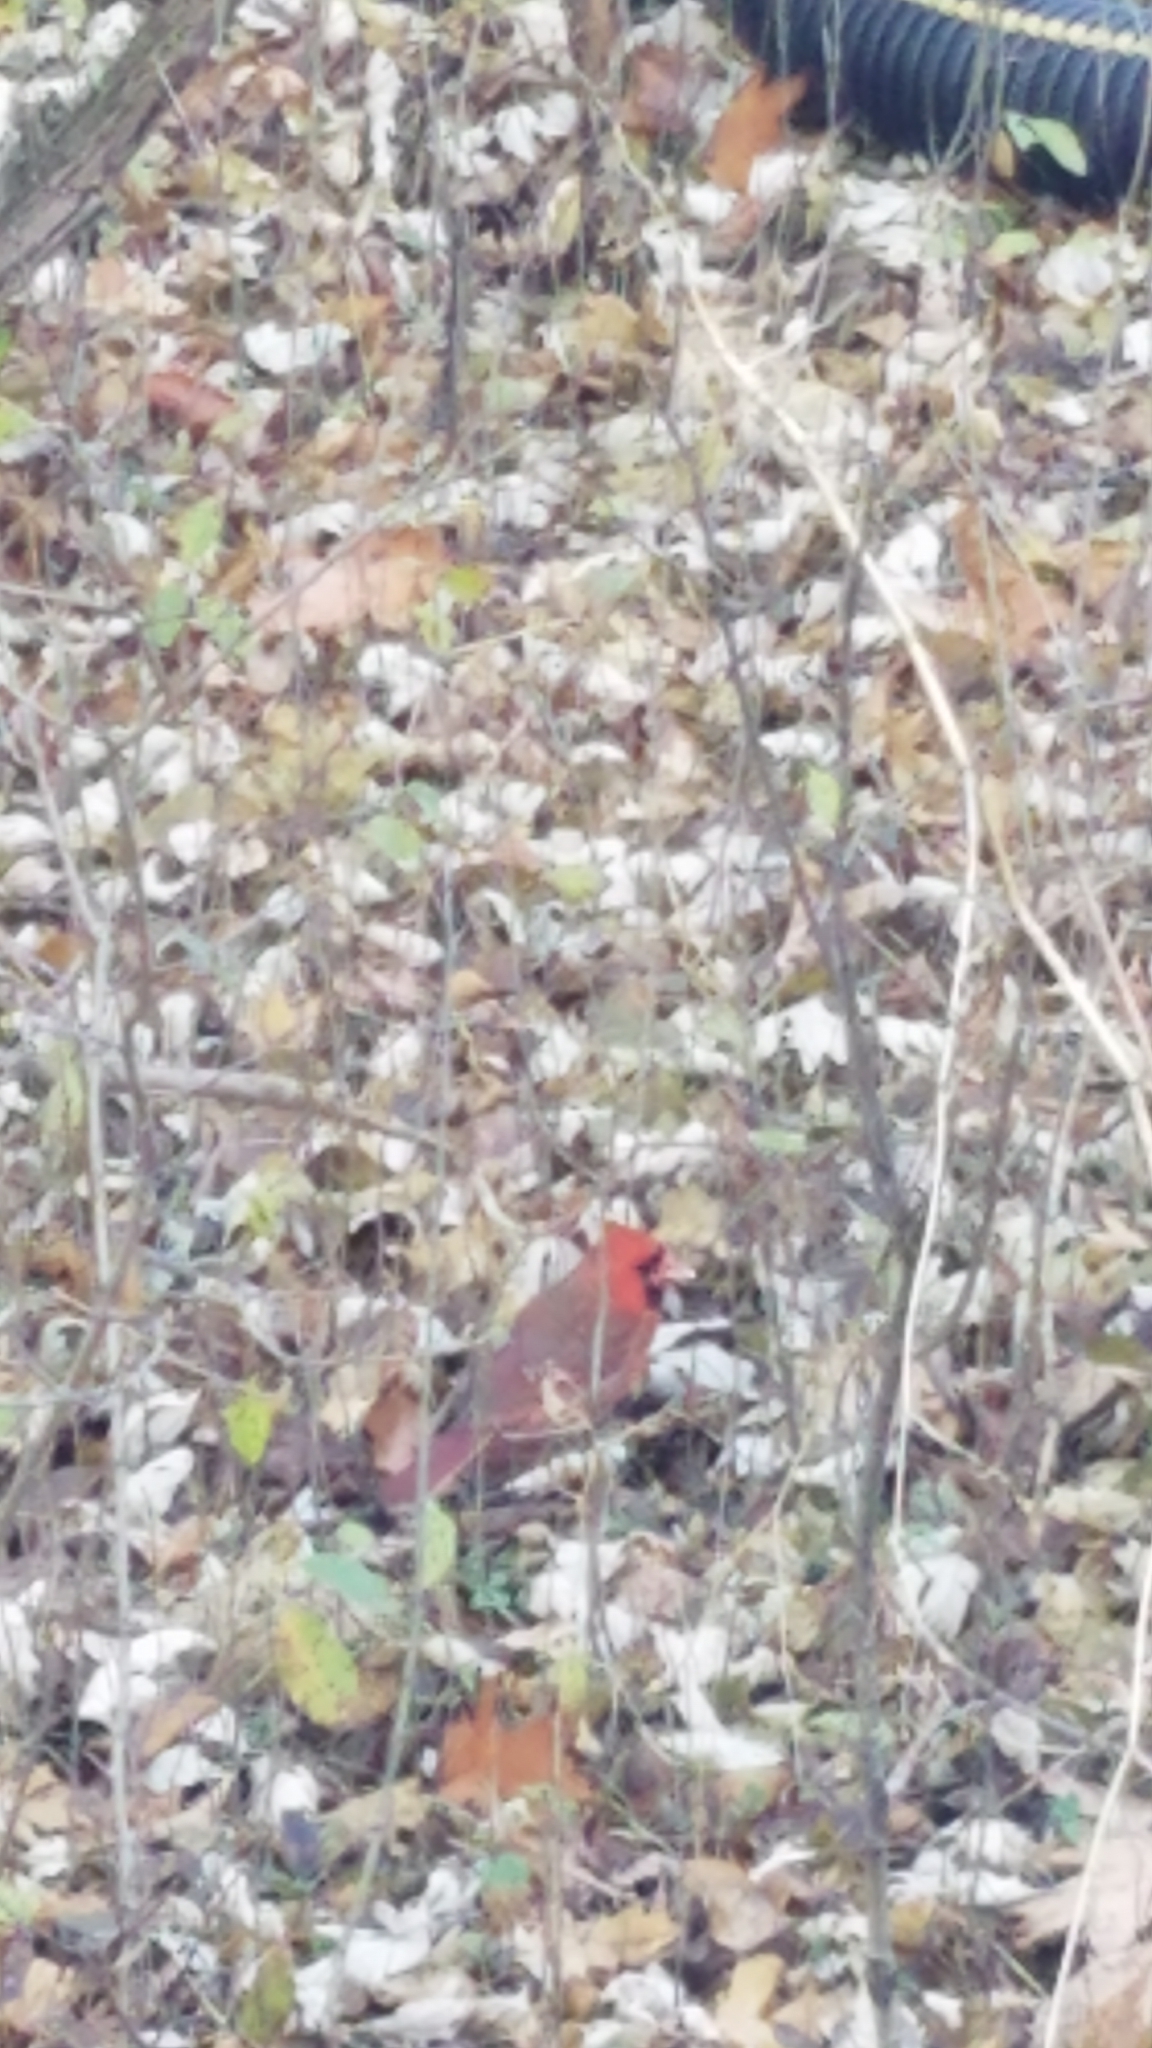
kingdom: Animalia
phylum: Chordata
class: Aves
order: Passeriformes
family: Cardinalidae
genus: Cardinalis
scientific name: Cardinalis cardinalis
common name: Northern cardinal
